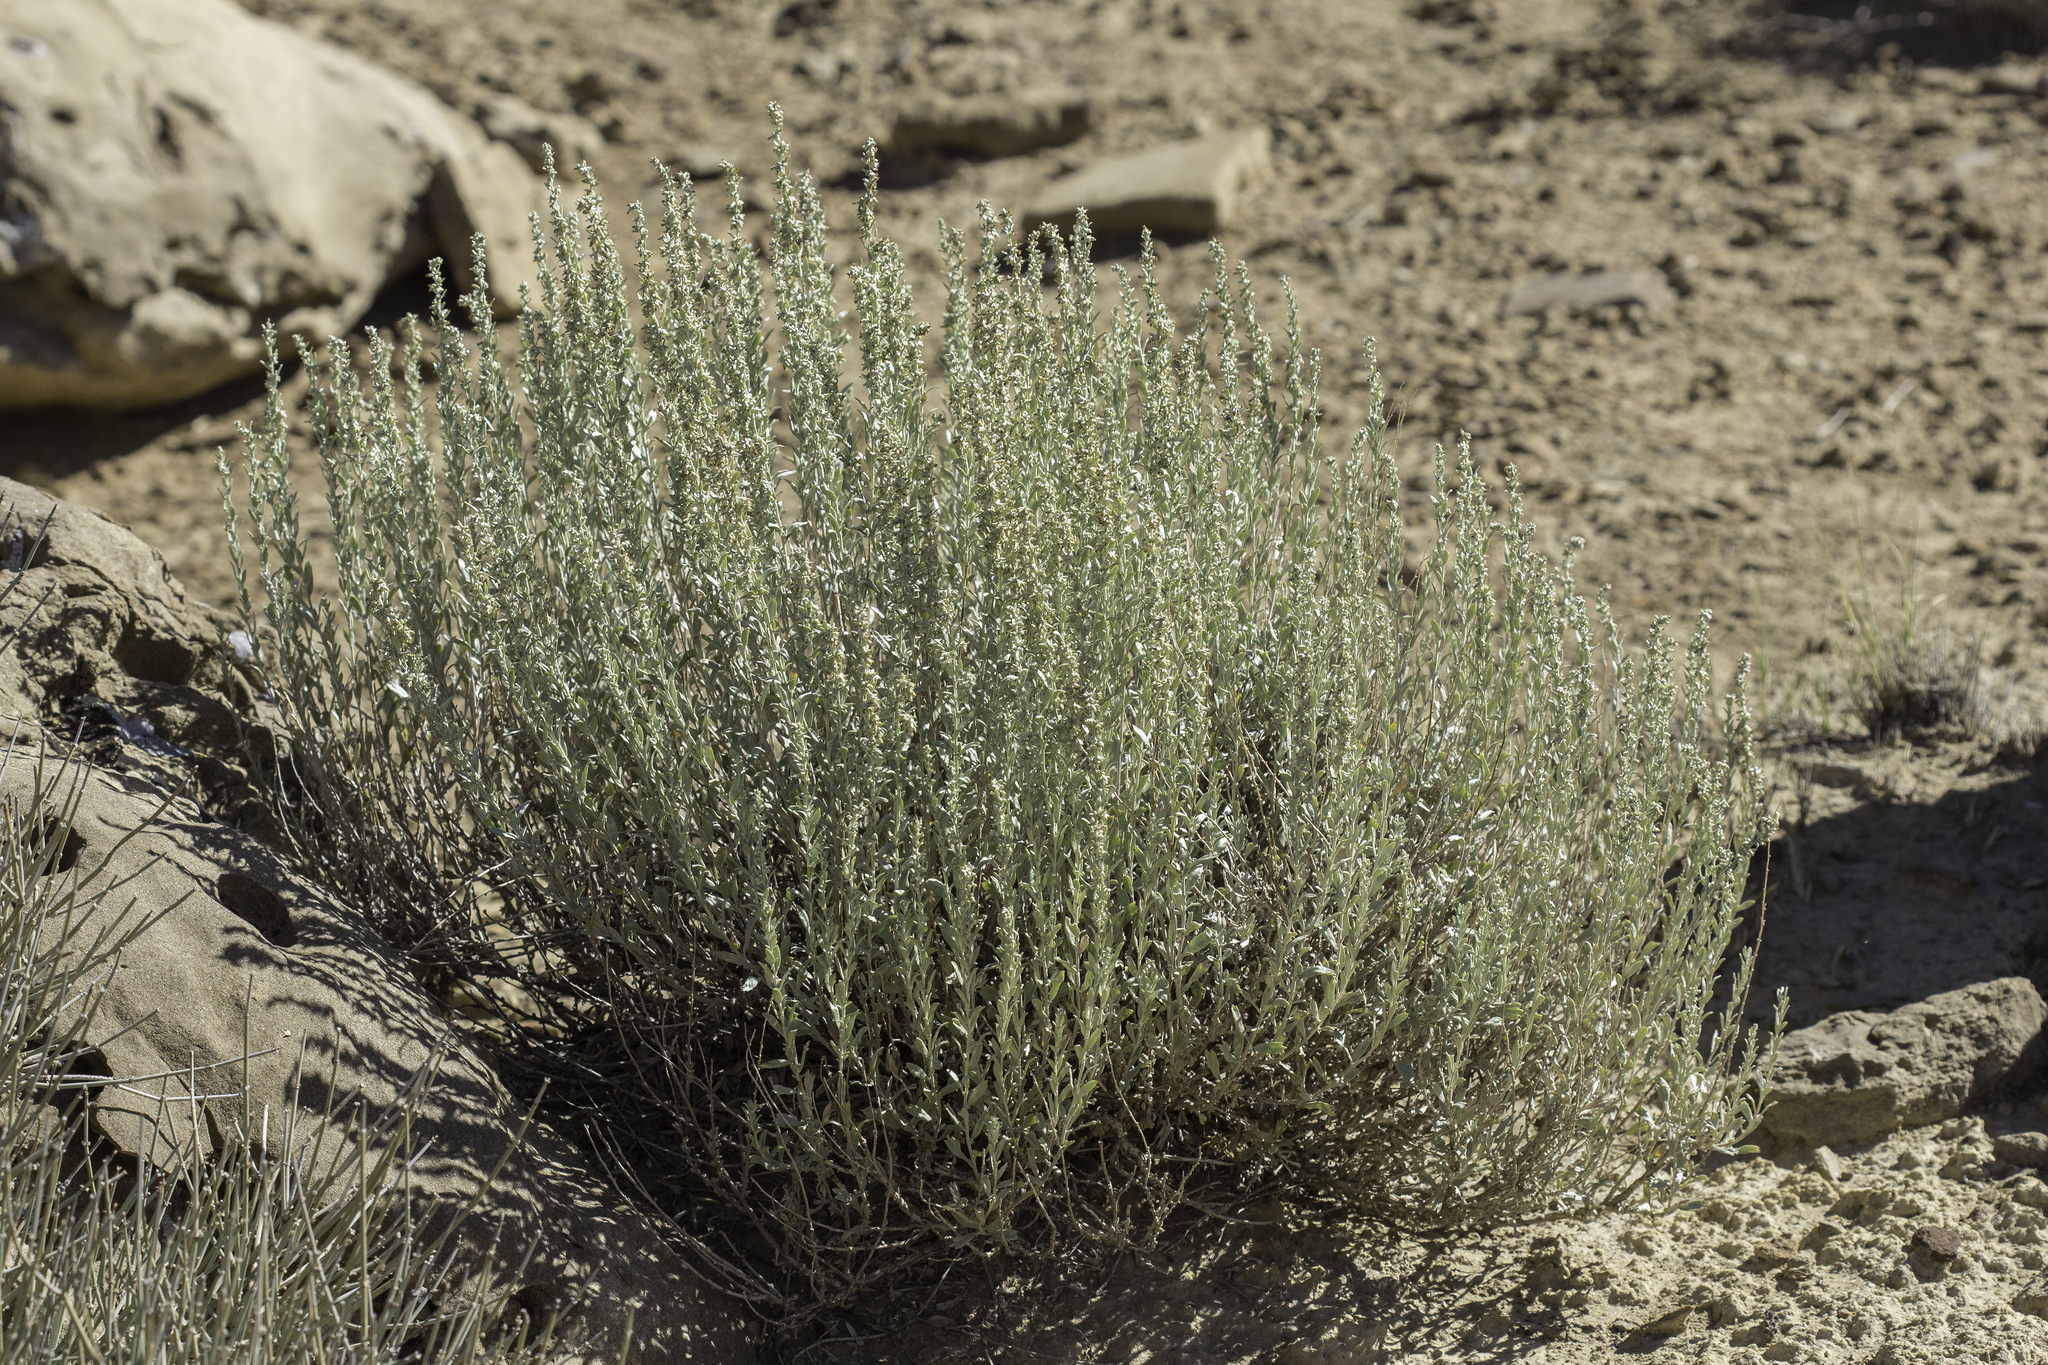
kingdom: Plantae
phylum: Tracheophyta
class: Magnoliopsida
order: Asterales
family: Asteraceae
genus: Artemisia
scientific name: Artemisia bigelovii
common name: Bigelow sagebrush
